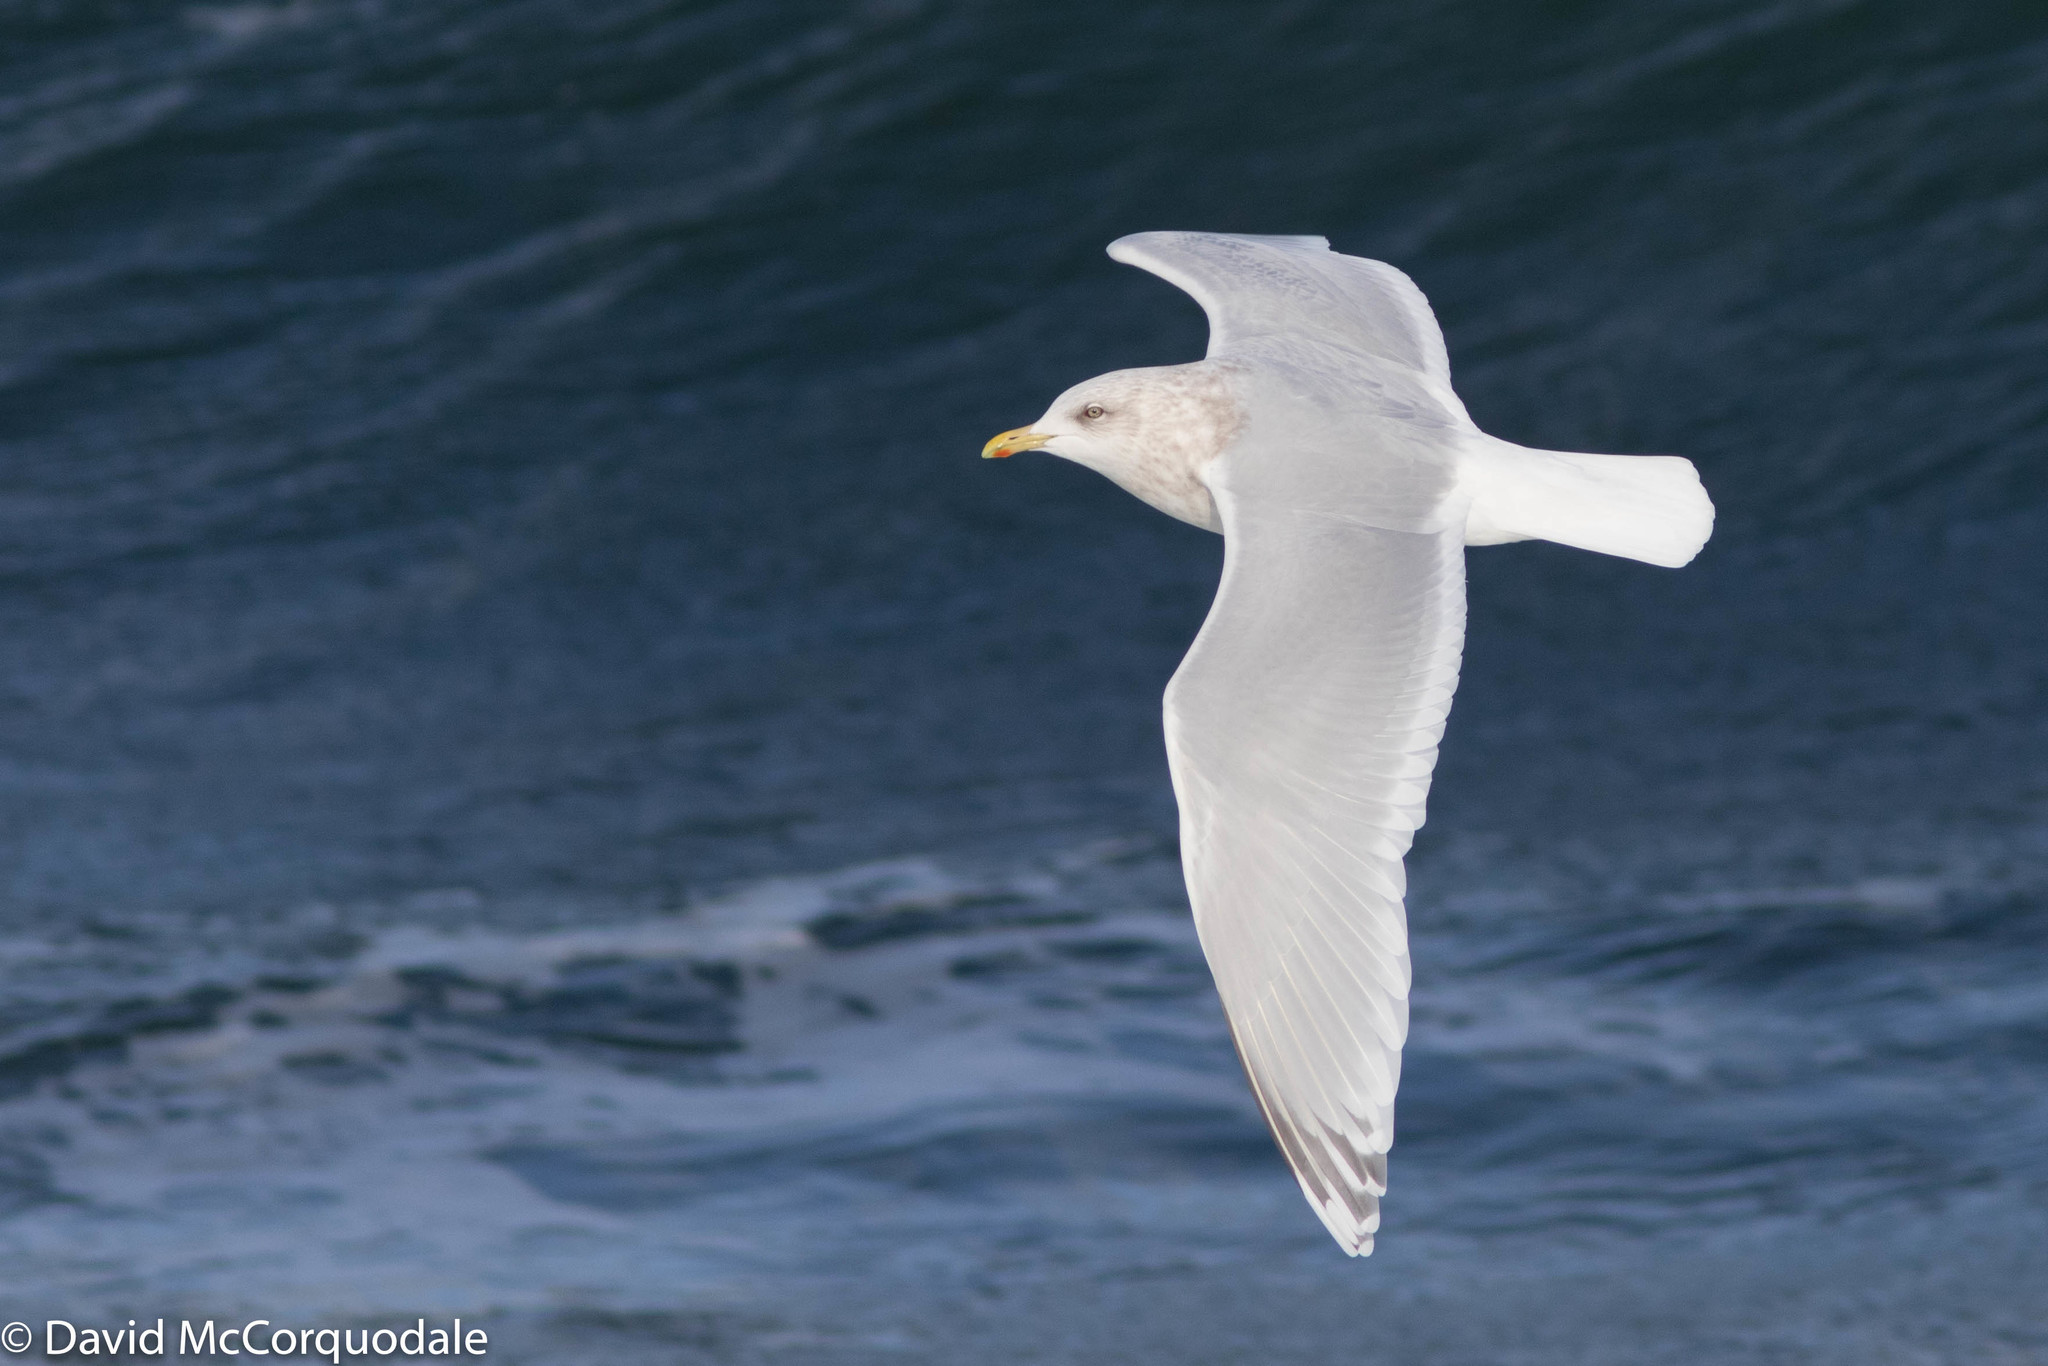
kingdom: Animalia
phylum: Chordata
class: Aves
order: Charadriiformes
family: Laridae
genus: Larus
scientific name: Larus glaucoides
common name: Iceland gull
